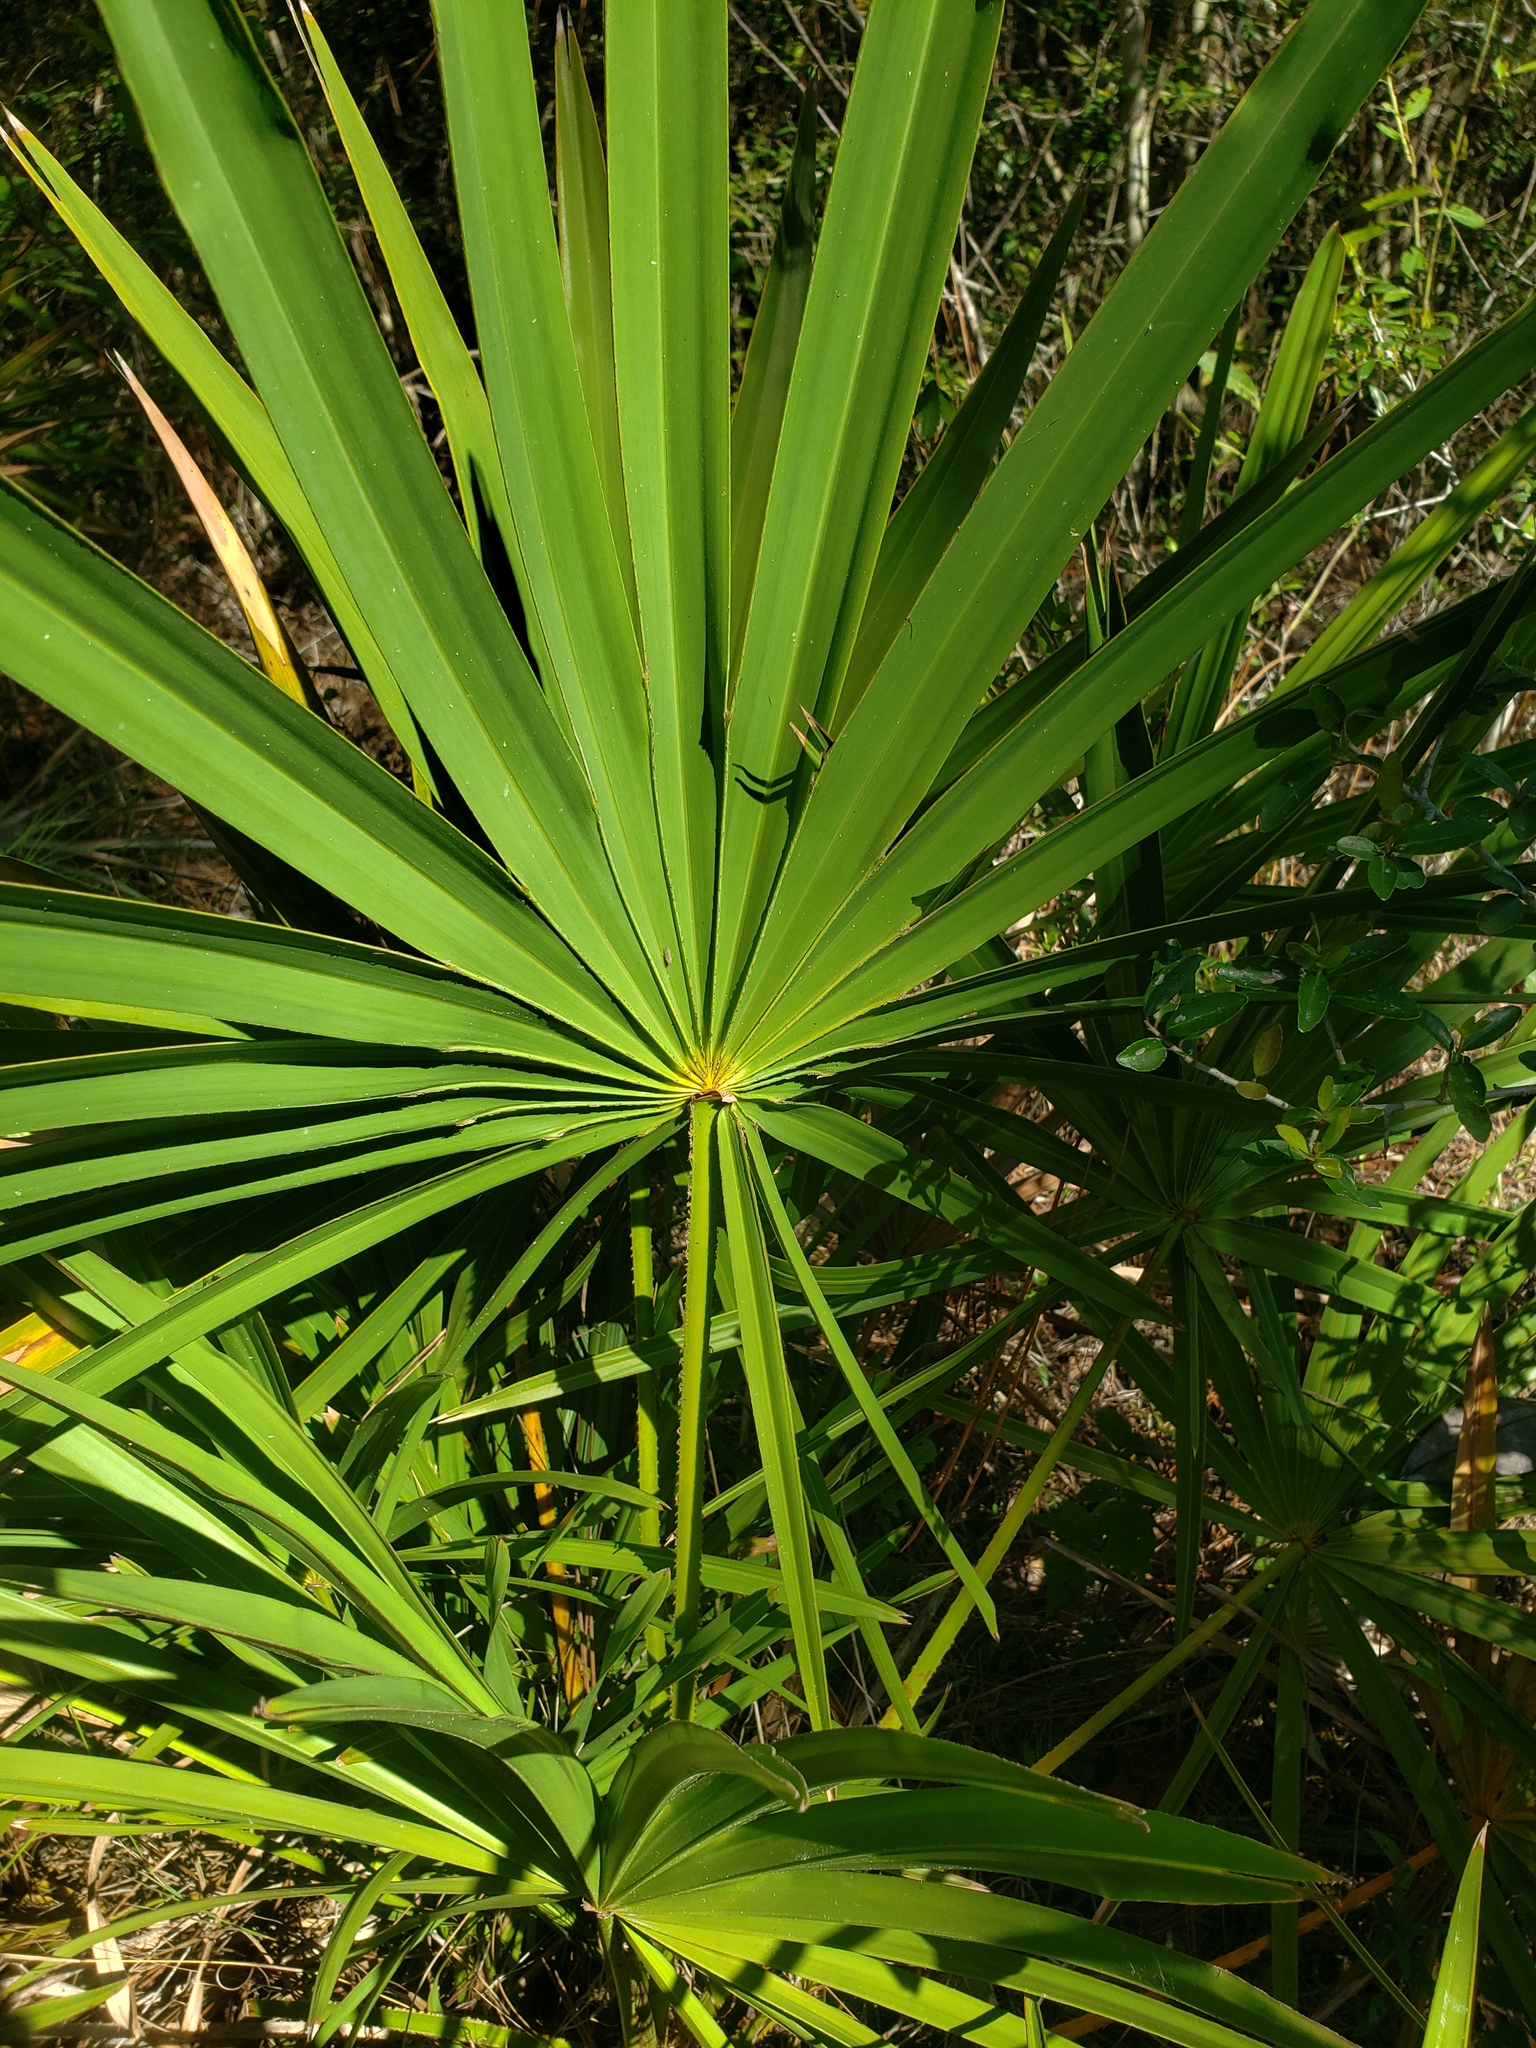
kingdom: Plantae
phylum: Tracheophyta
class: Liliopsida
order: Arecales
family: Arecaceae
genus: Serenoa
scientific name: Serenoa repens
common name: Saw-palmetto
